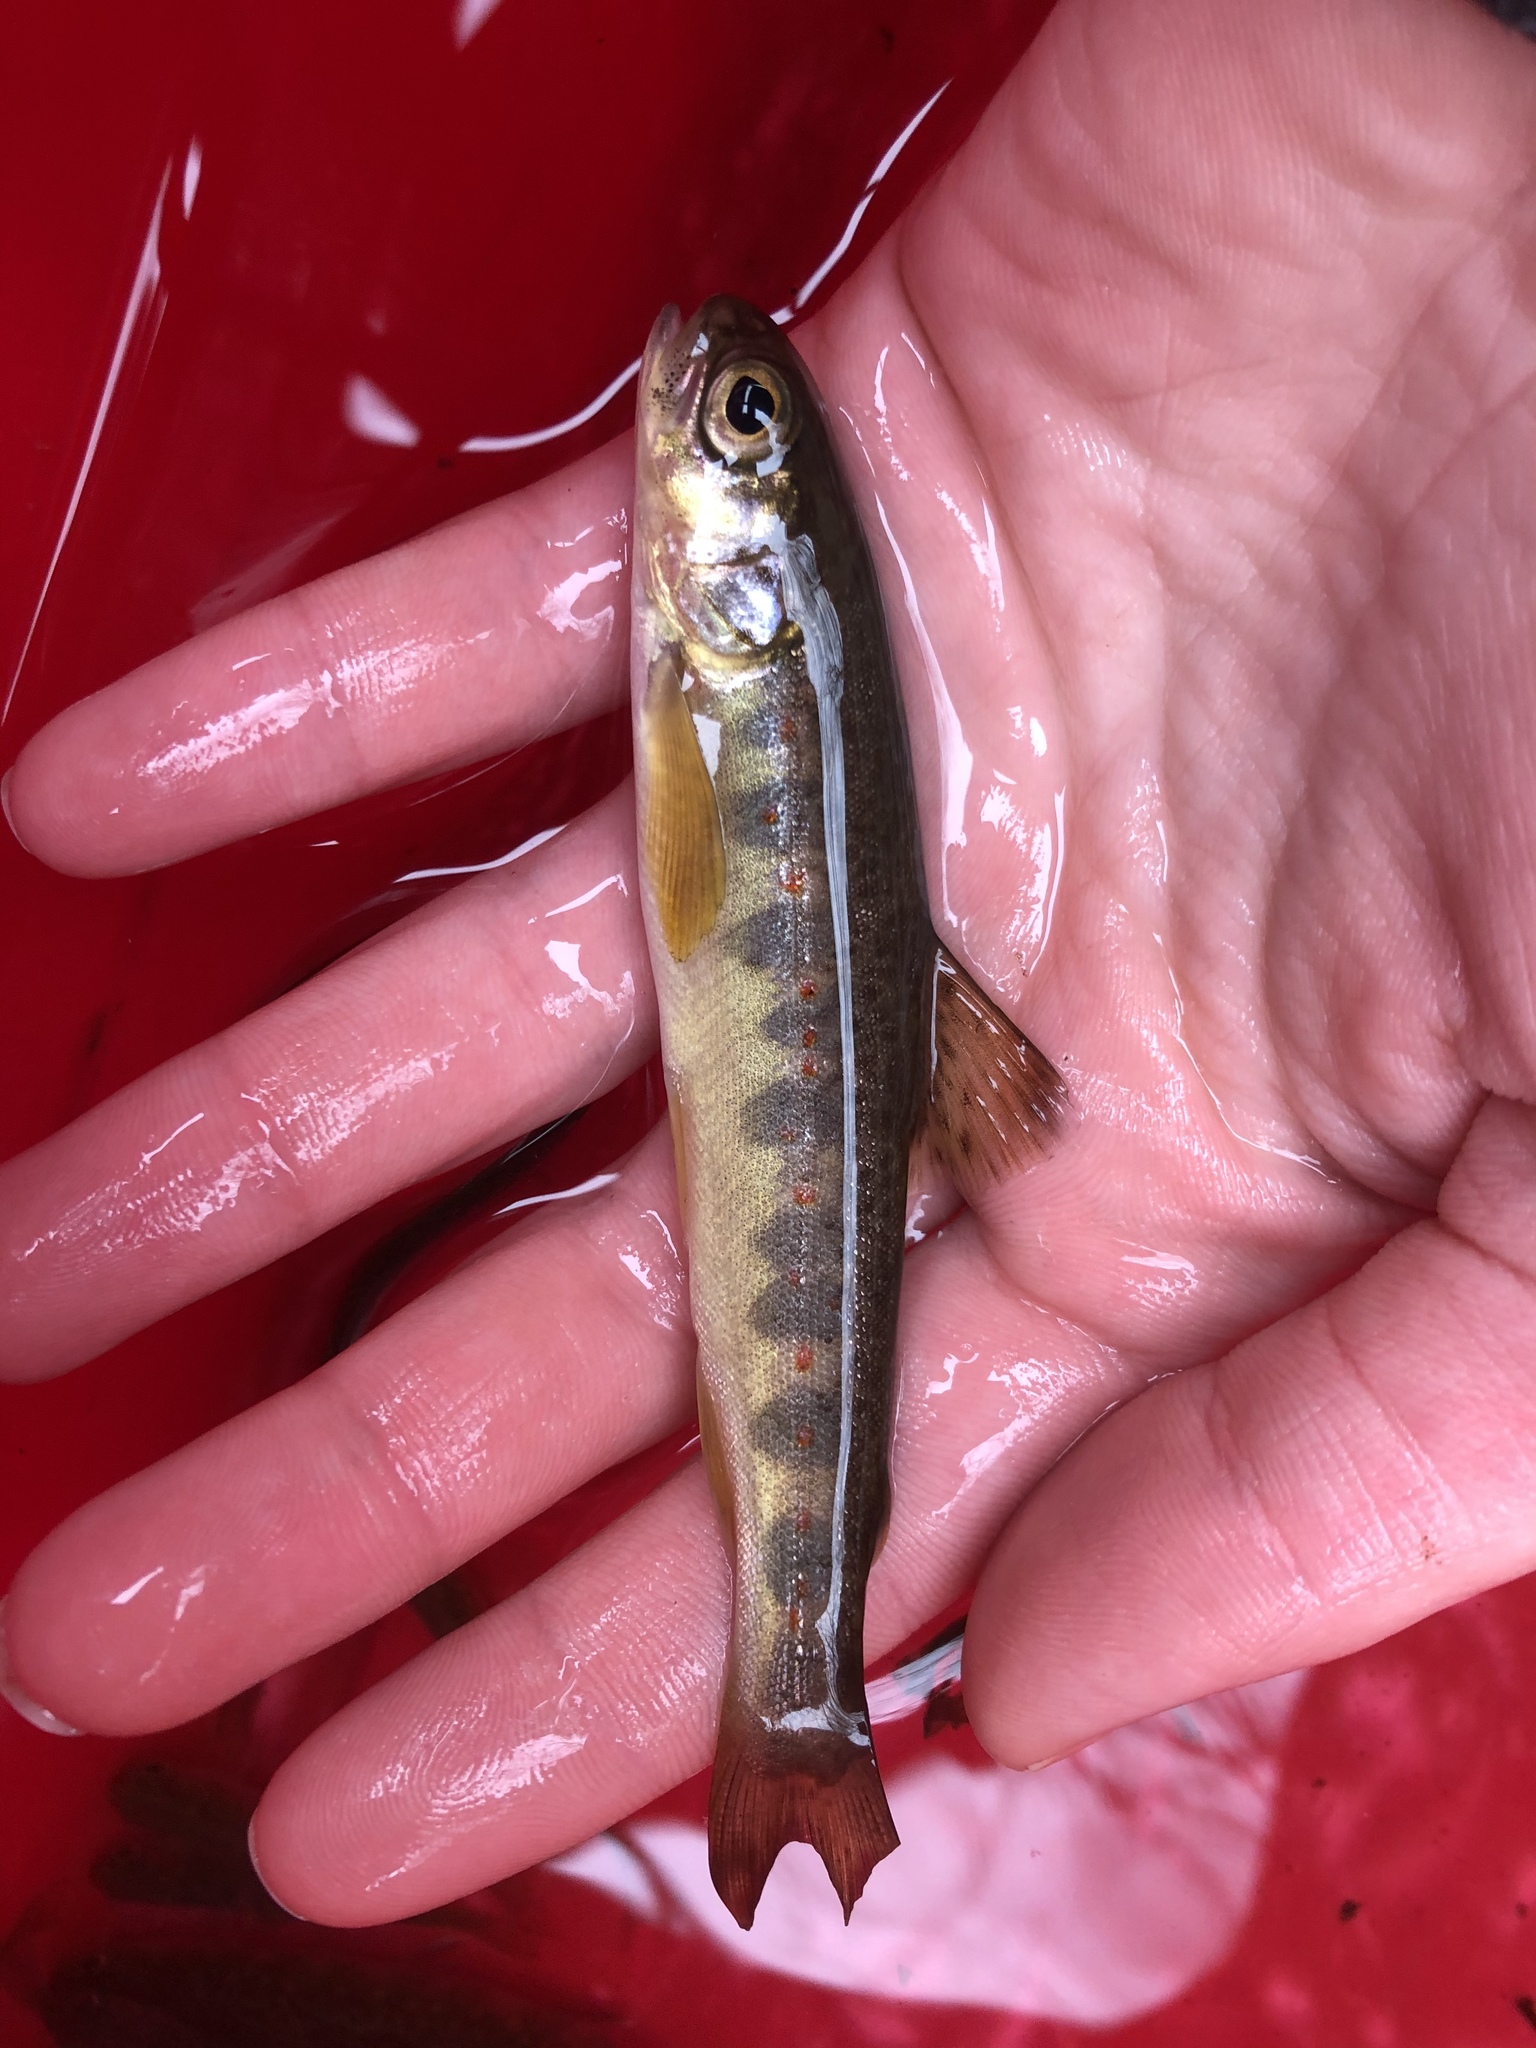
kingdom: Animalia
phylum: Chordata
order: Salmoniformes
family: Salmonidae
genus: Salmo
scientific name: Salmo salar
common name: Atlantic salmon
